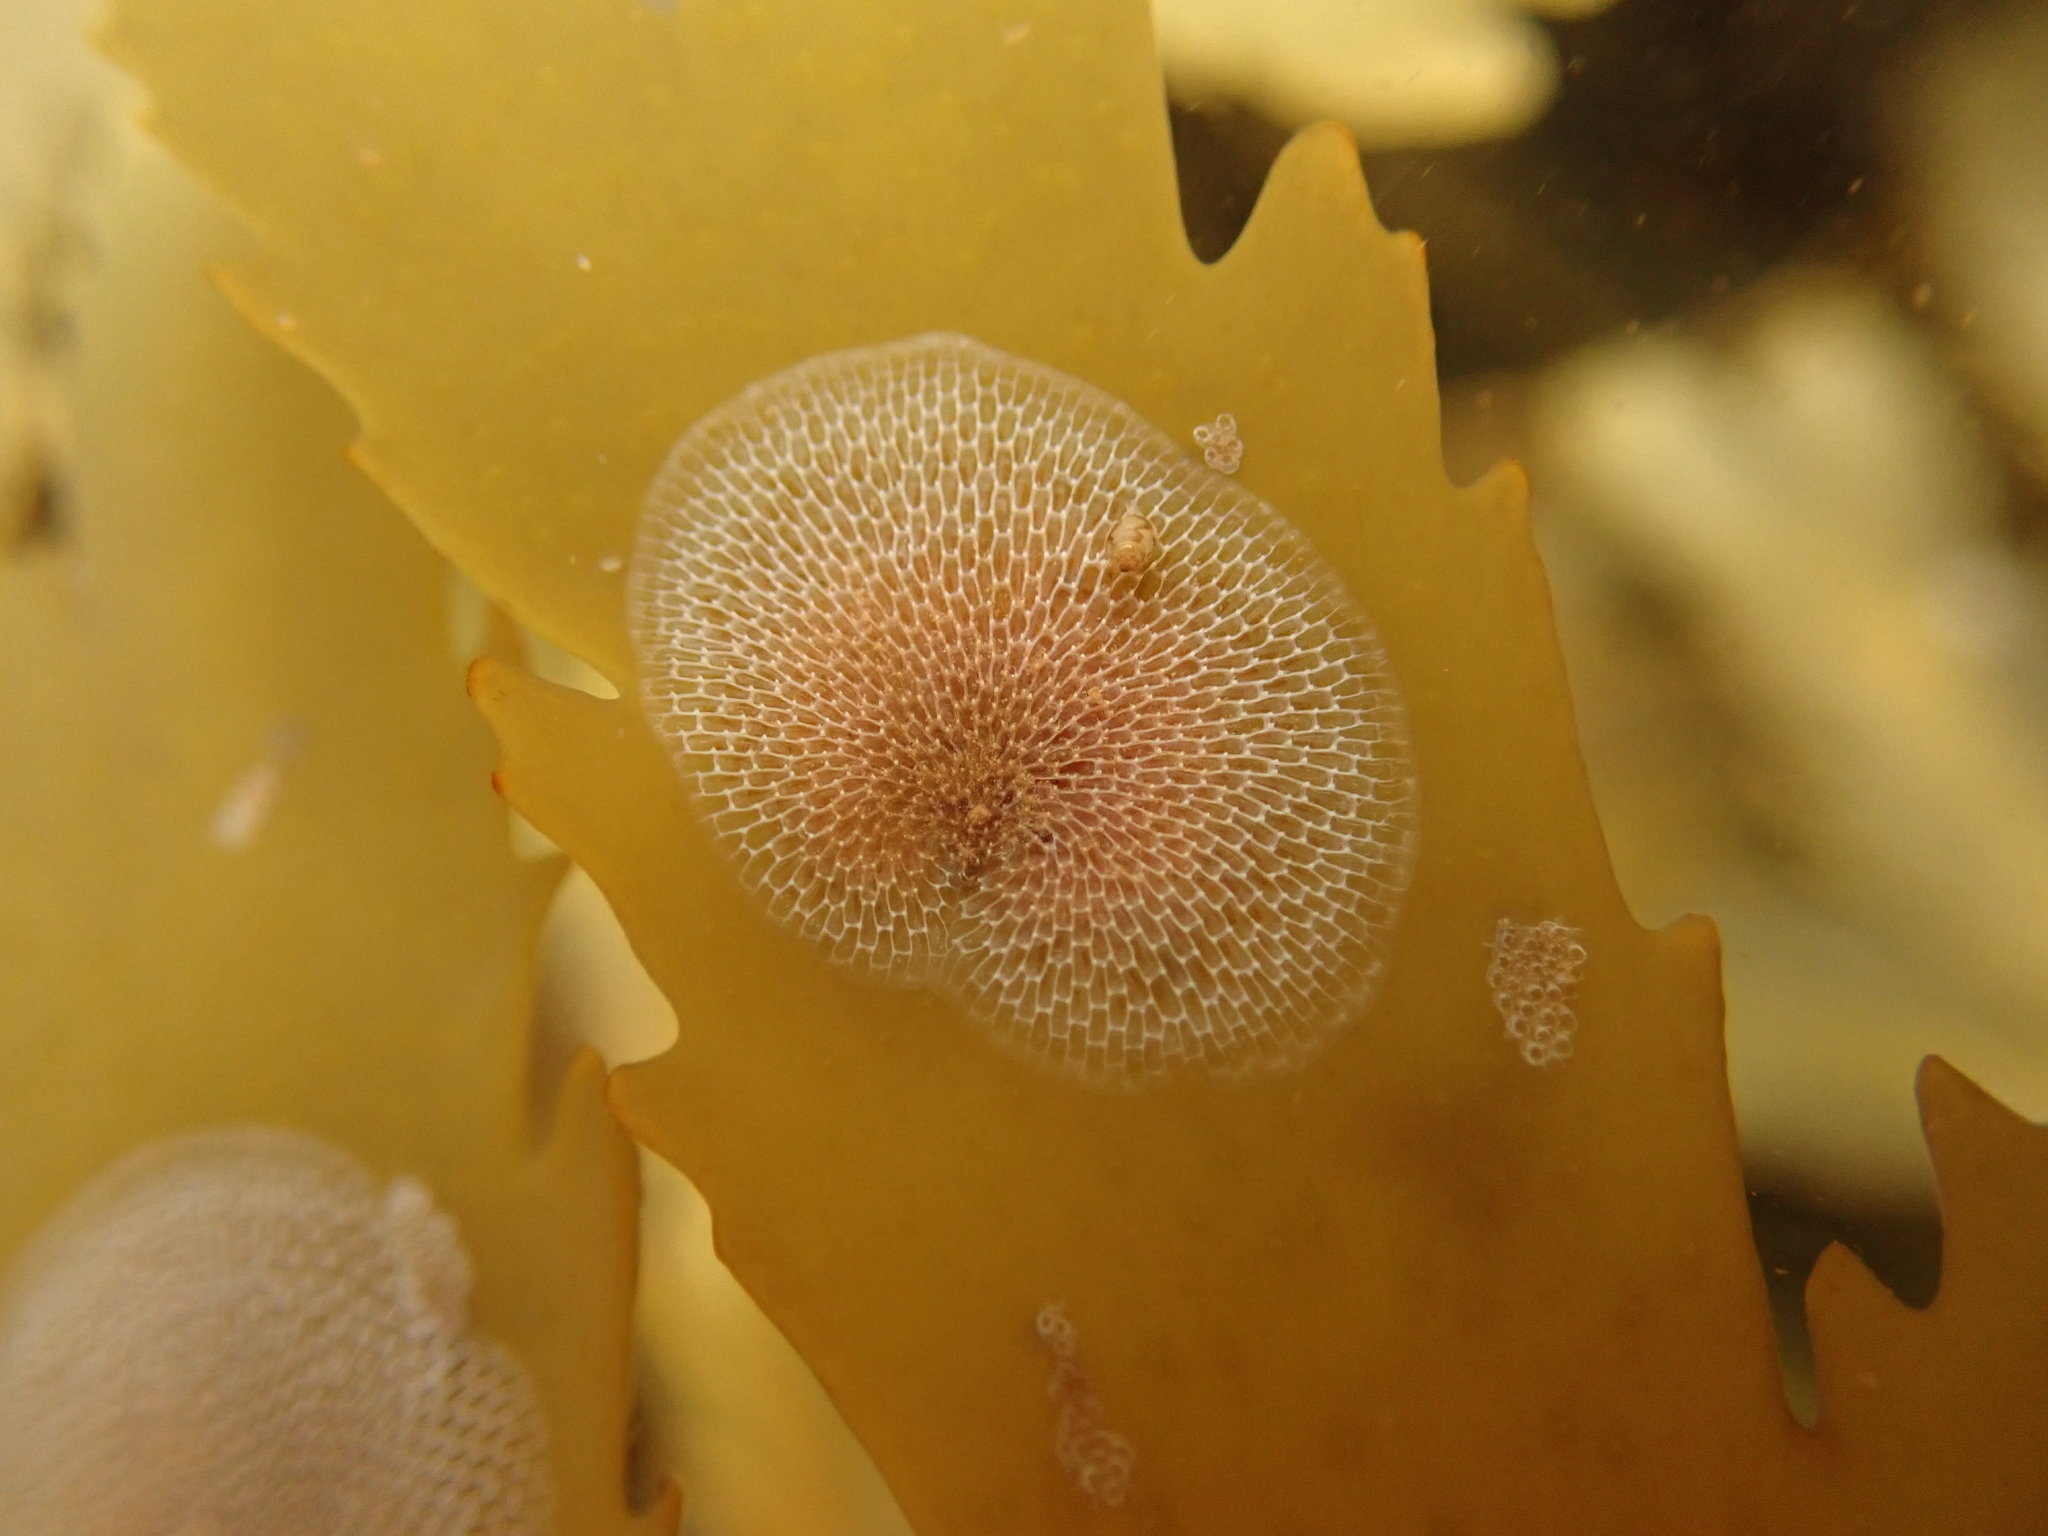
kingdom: Animalia
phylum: Bryozoa
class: Gymnolaemata
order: Cheilostomatida
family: Membraniporidae
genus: Membranipora
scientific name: Membranipora membranacea
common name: Sea mat
